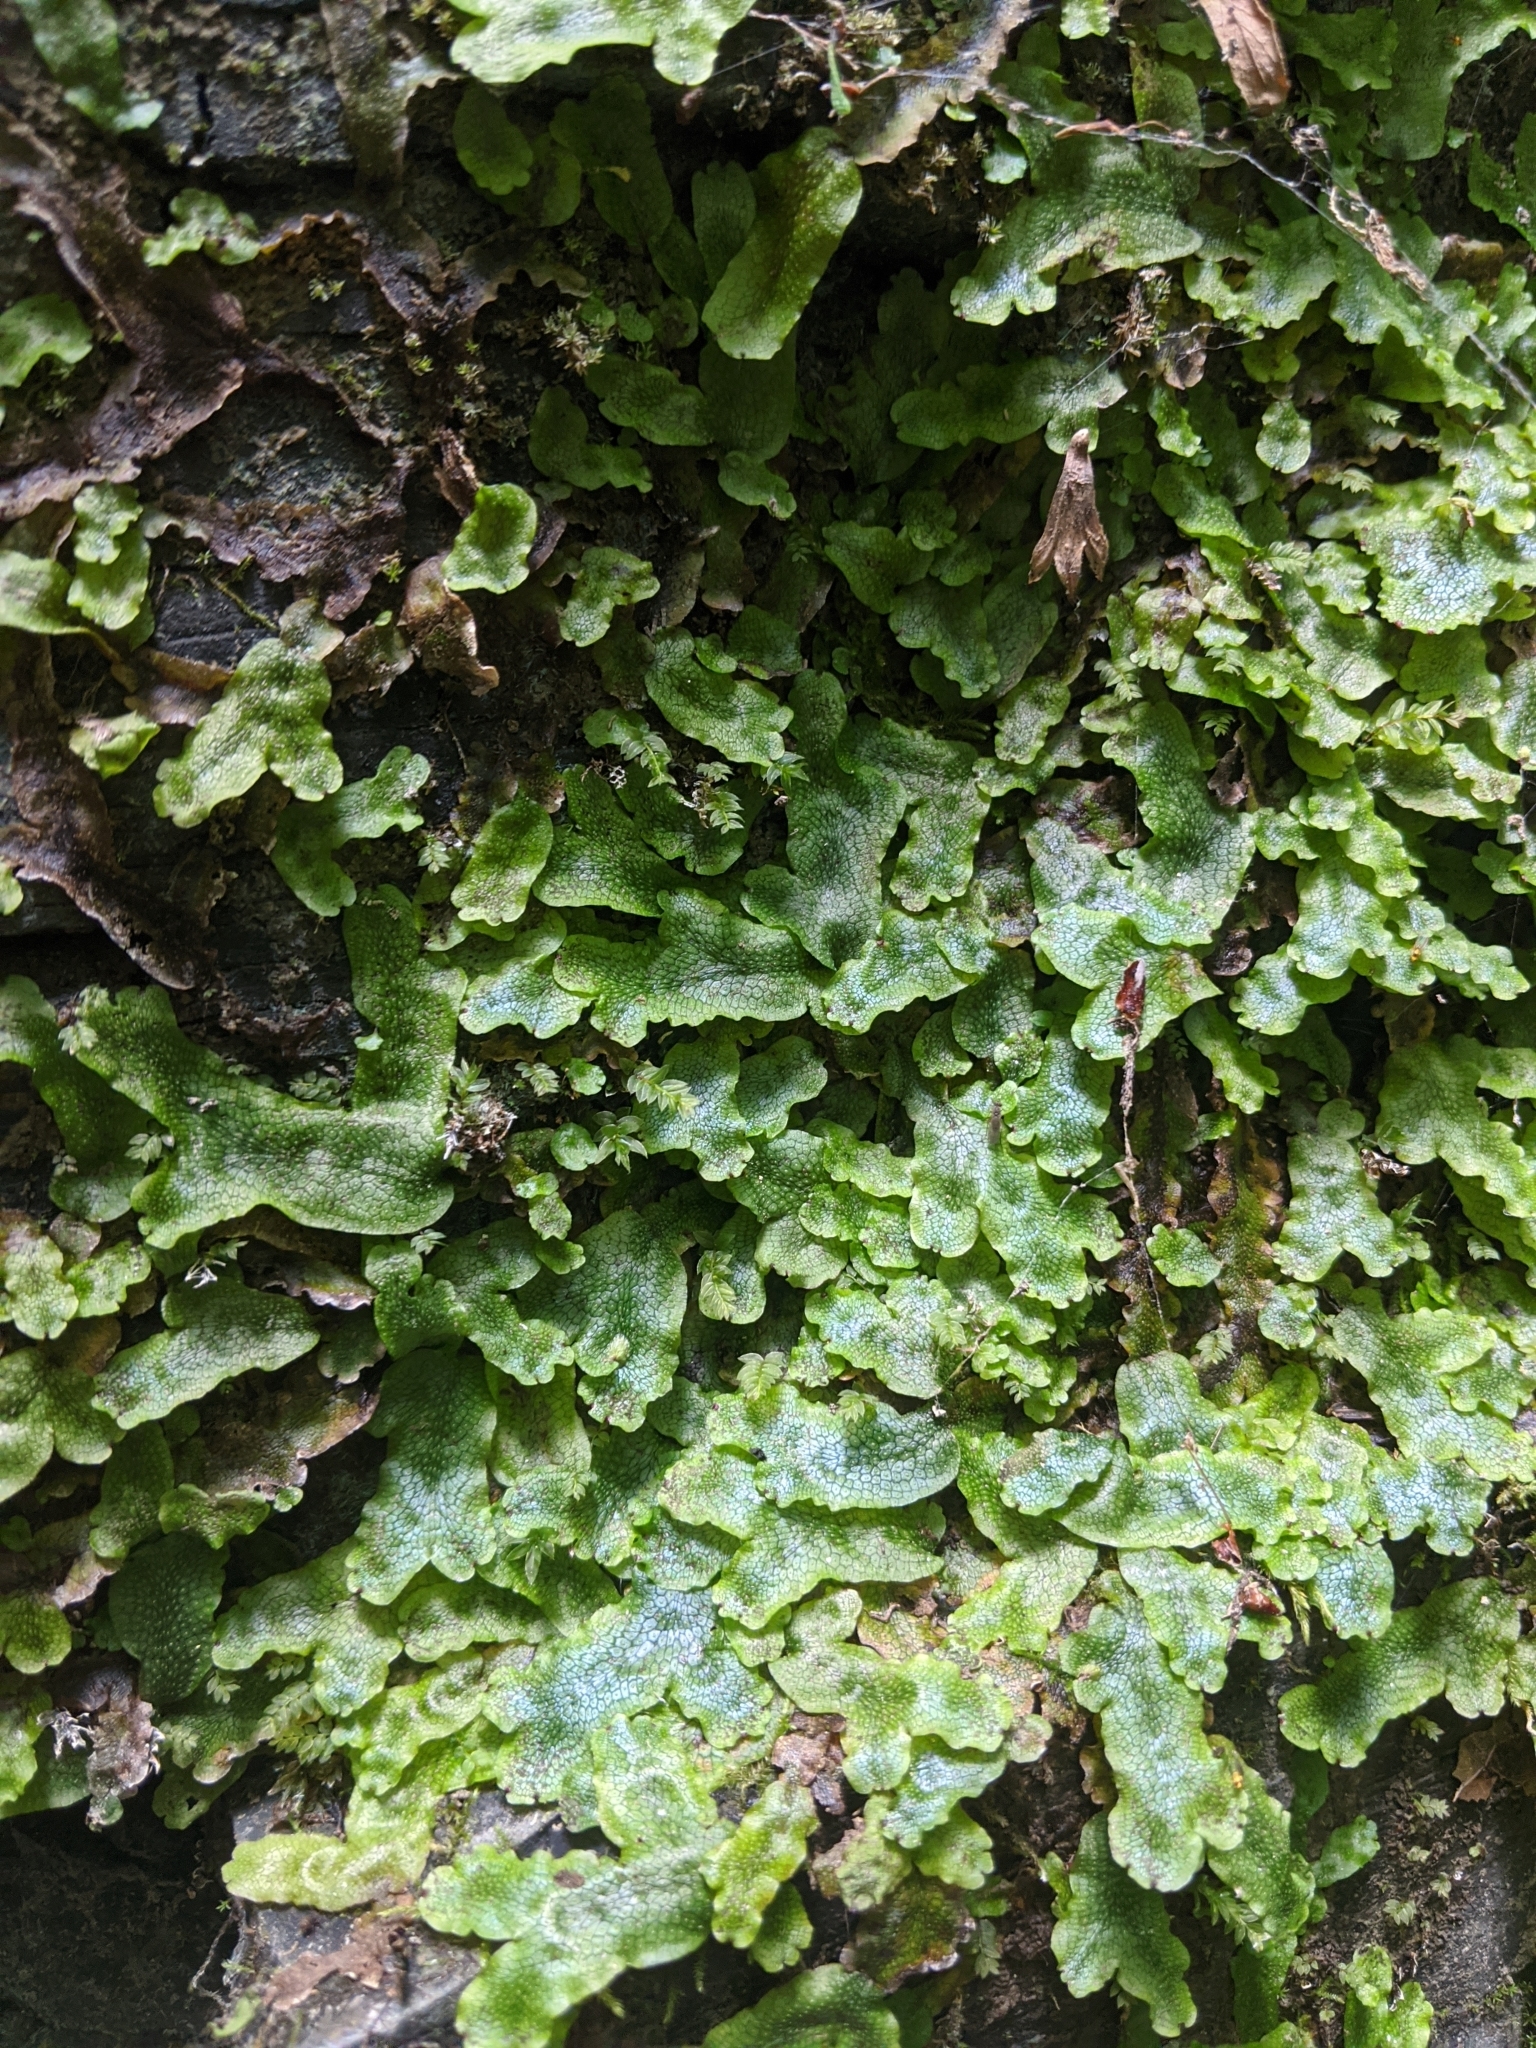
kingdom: Plantae
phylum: Marchantiophyta
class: Marchantiopsida
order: Marchantiales
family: Conocephalaceae
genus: Conocephalum
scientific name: Conocephalum salebrosum
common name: Cat-tongue liverwort
